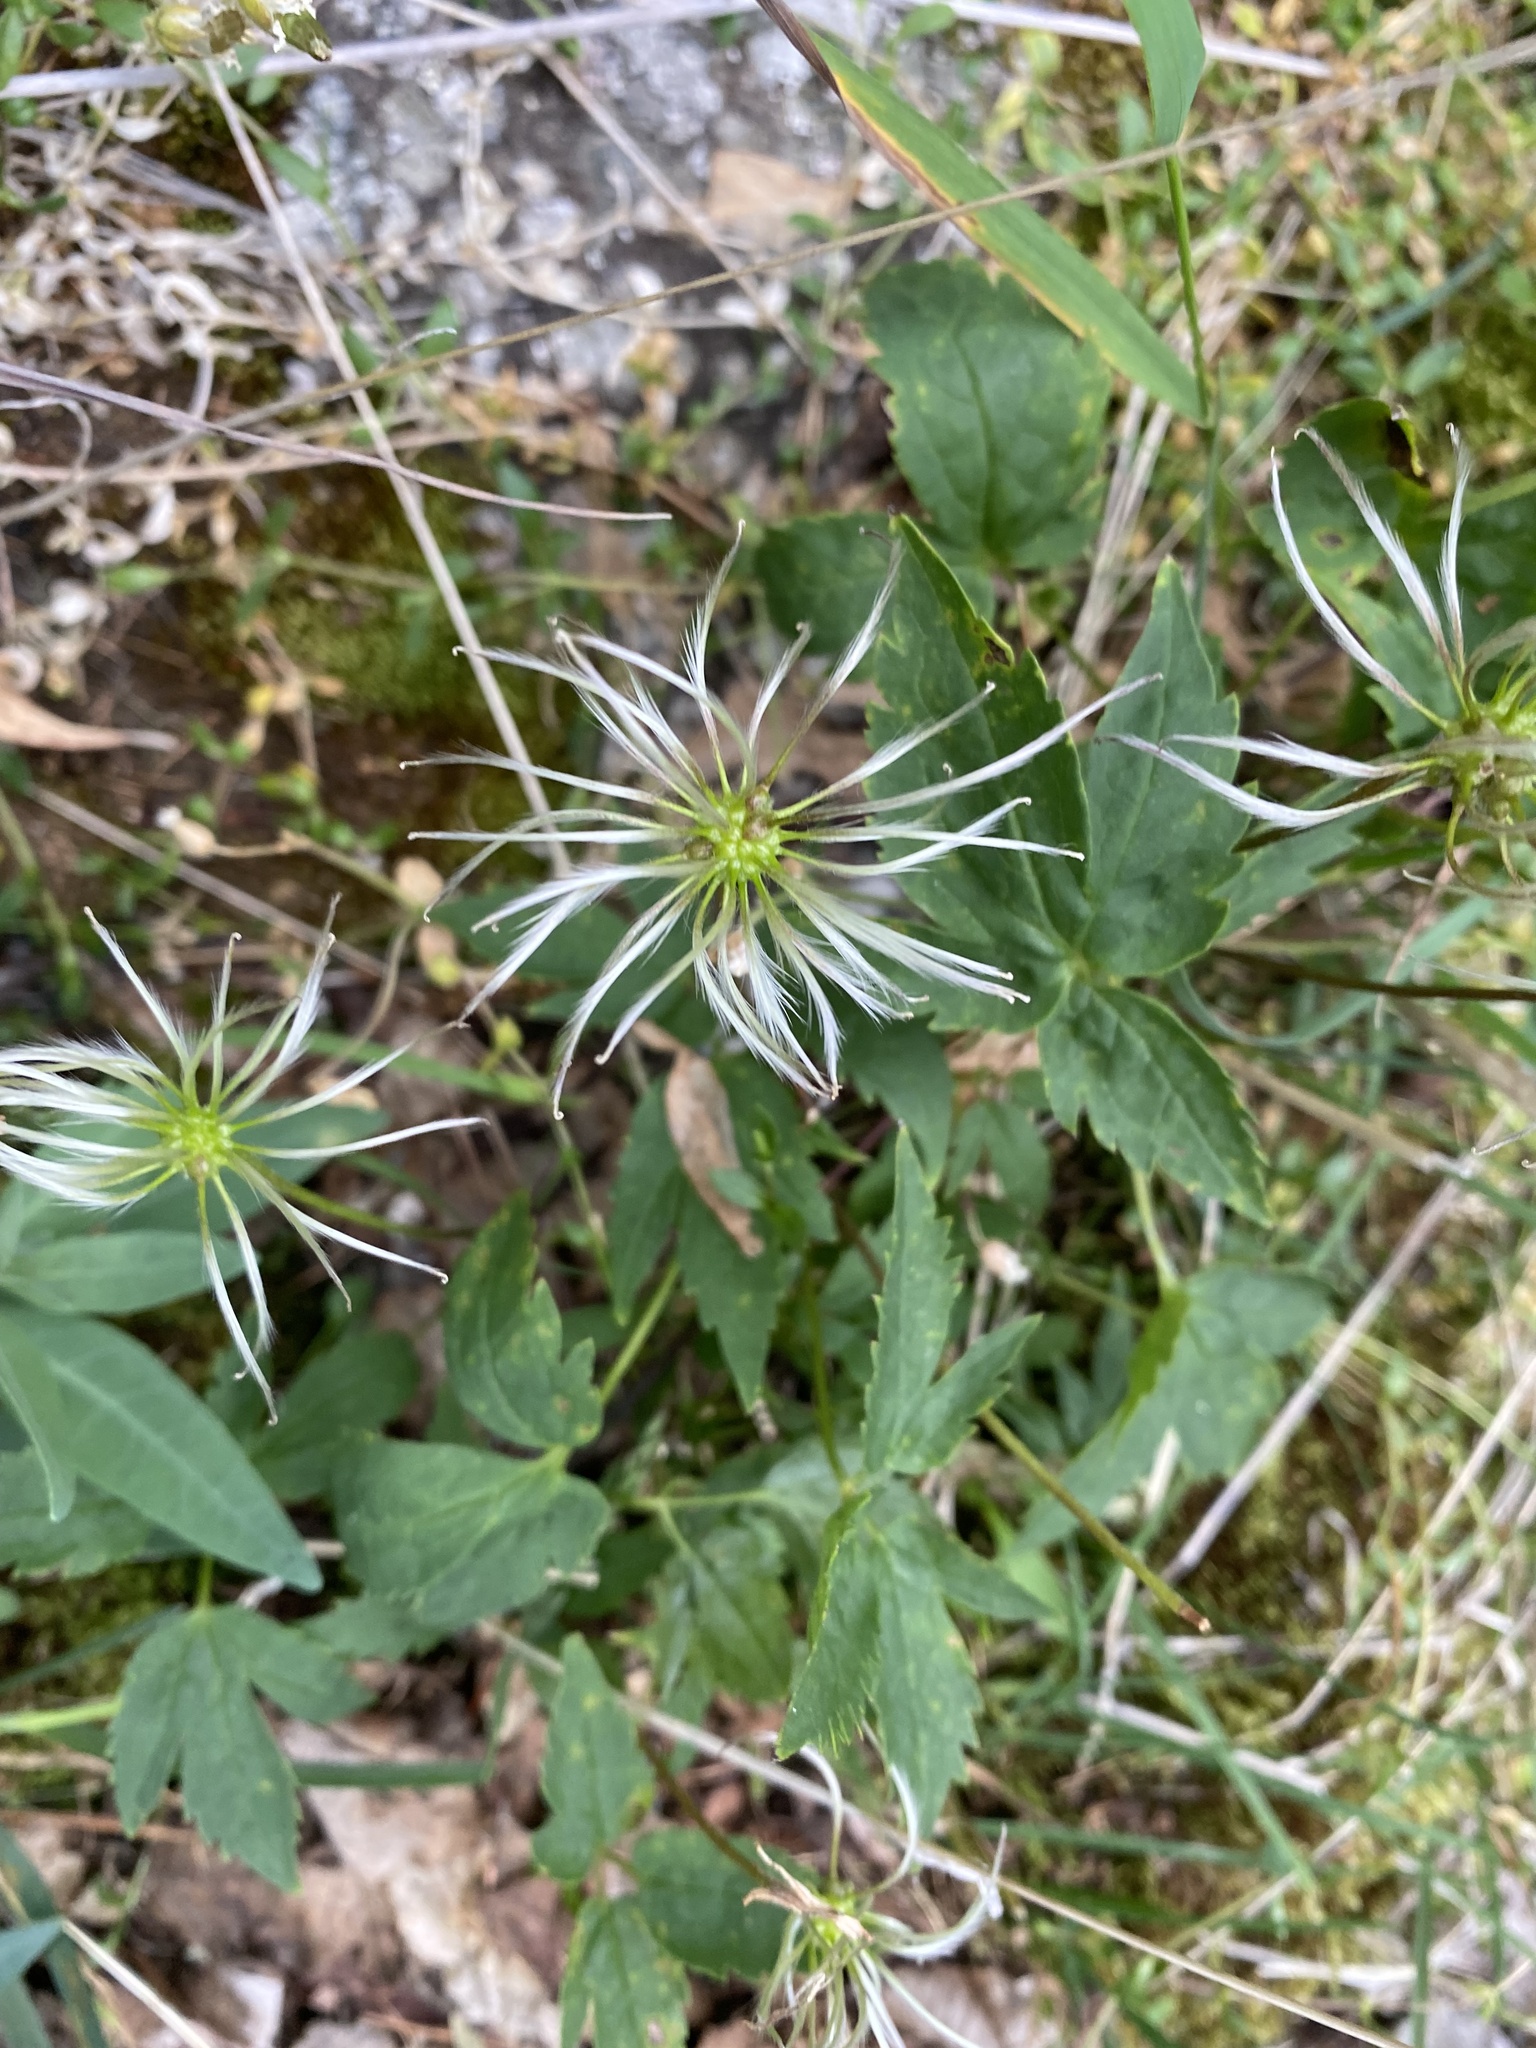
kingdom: Plantae
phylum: Tracheophyta
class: Magnoliopsida
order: Ranunculales
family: Ranunculaceae
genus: Clematis
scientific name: Clematis sibirica
